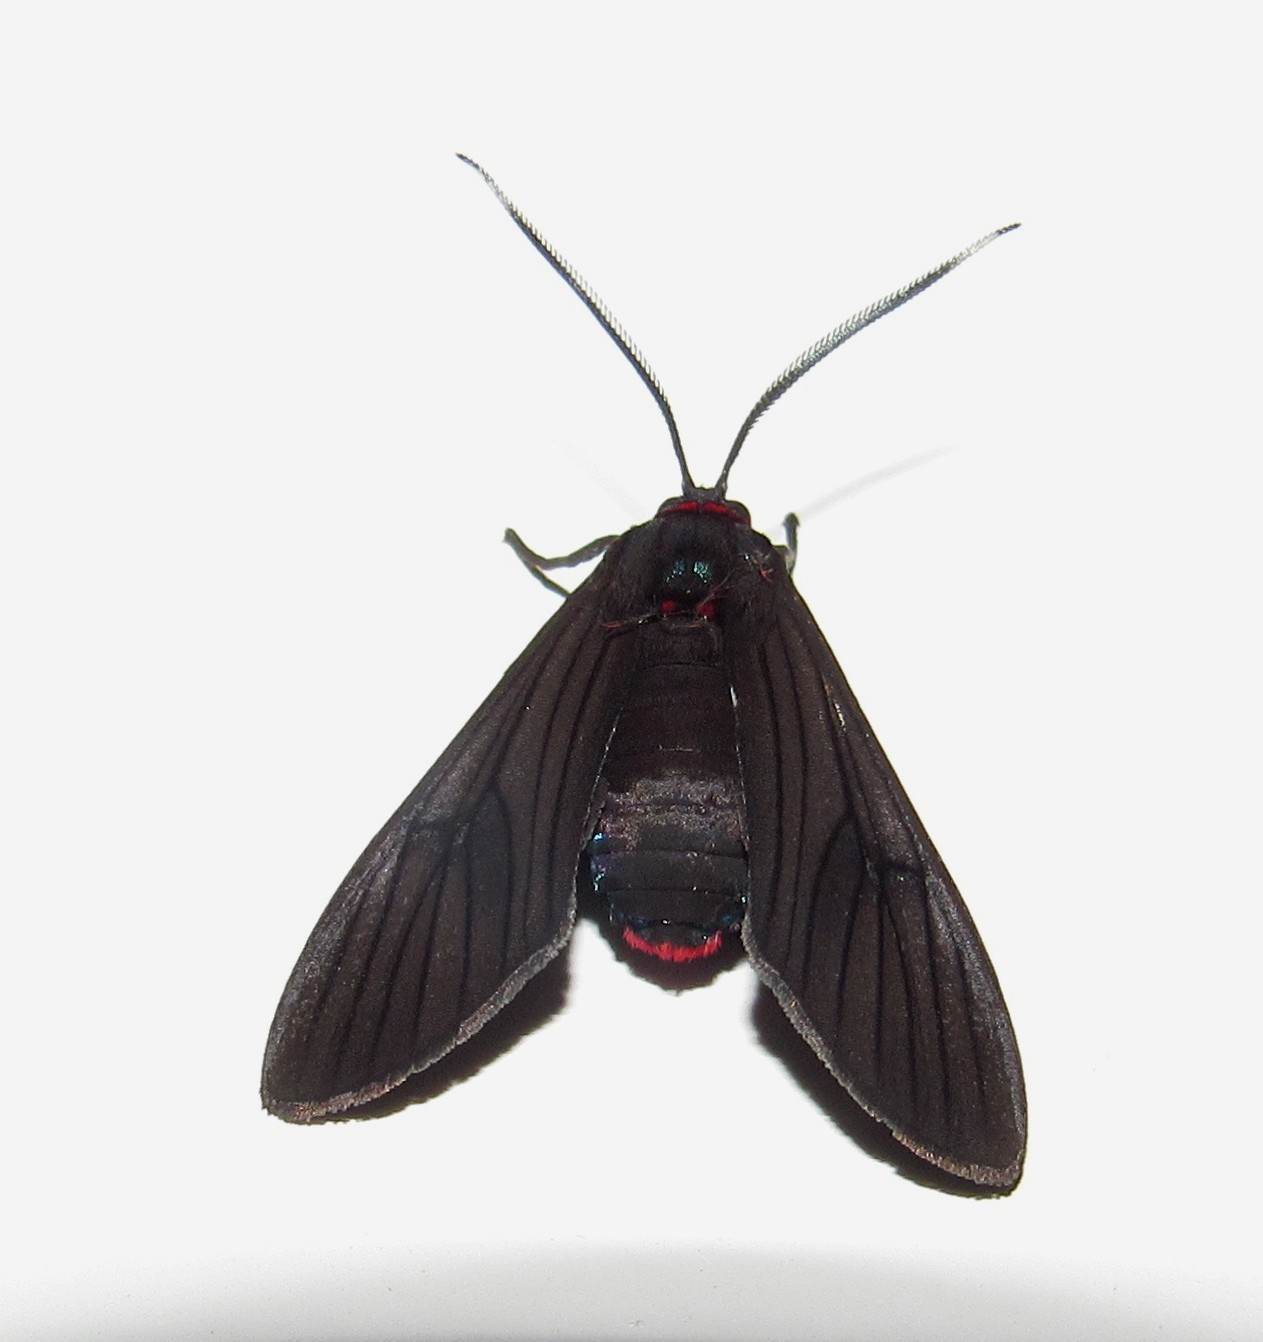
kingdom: Animalia
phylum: Arthropoda
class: Insecta
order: Lepidoptera
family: Erebidae
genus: Saurita
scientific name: Saurita cassandra
